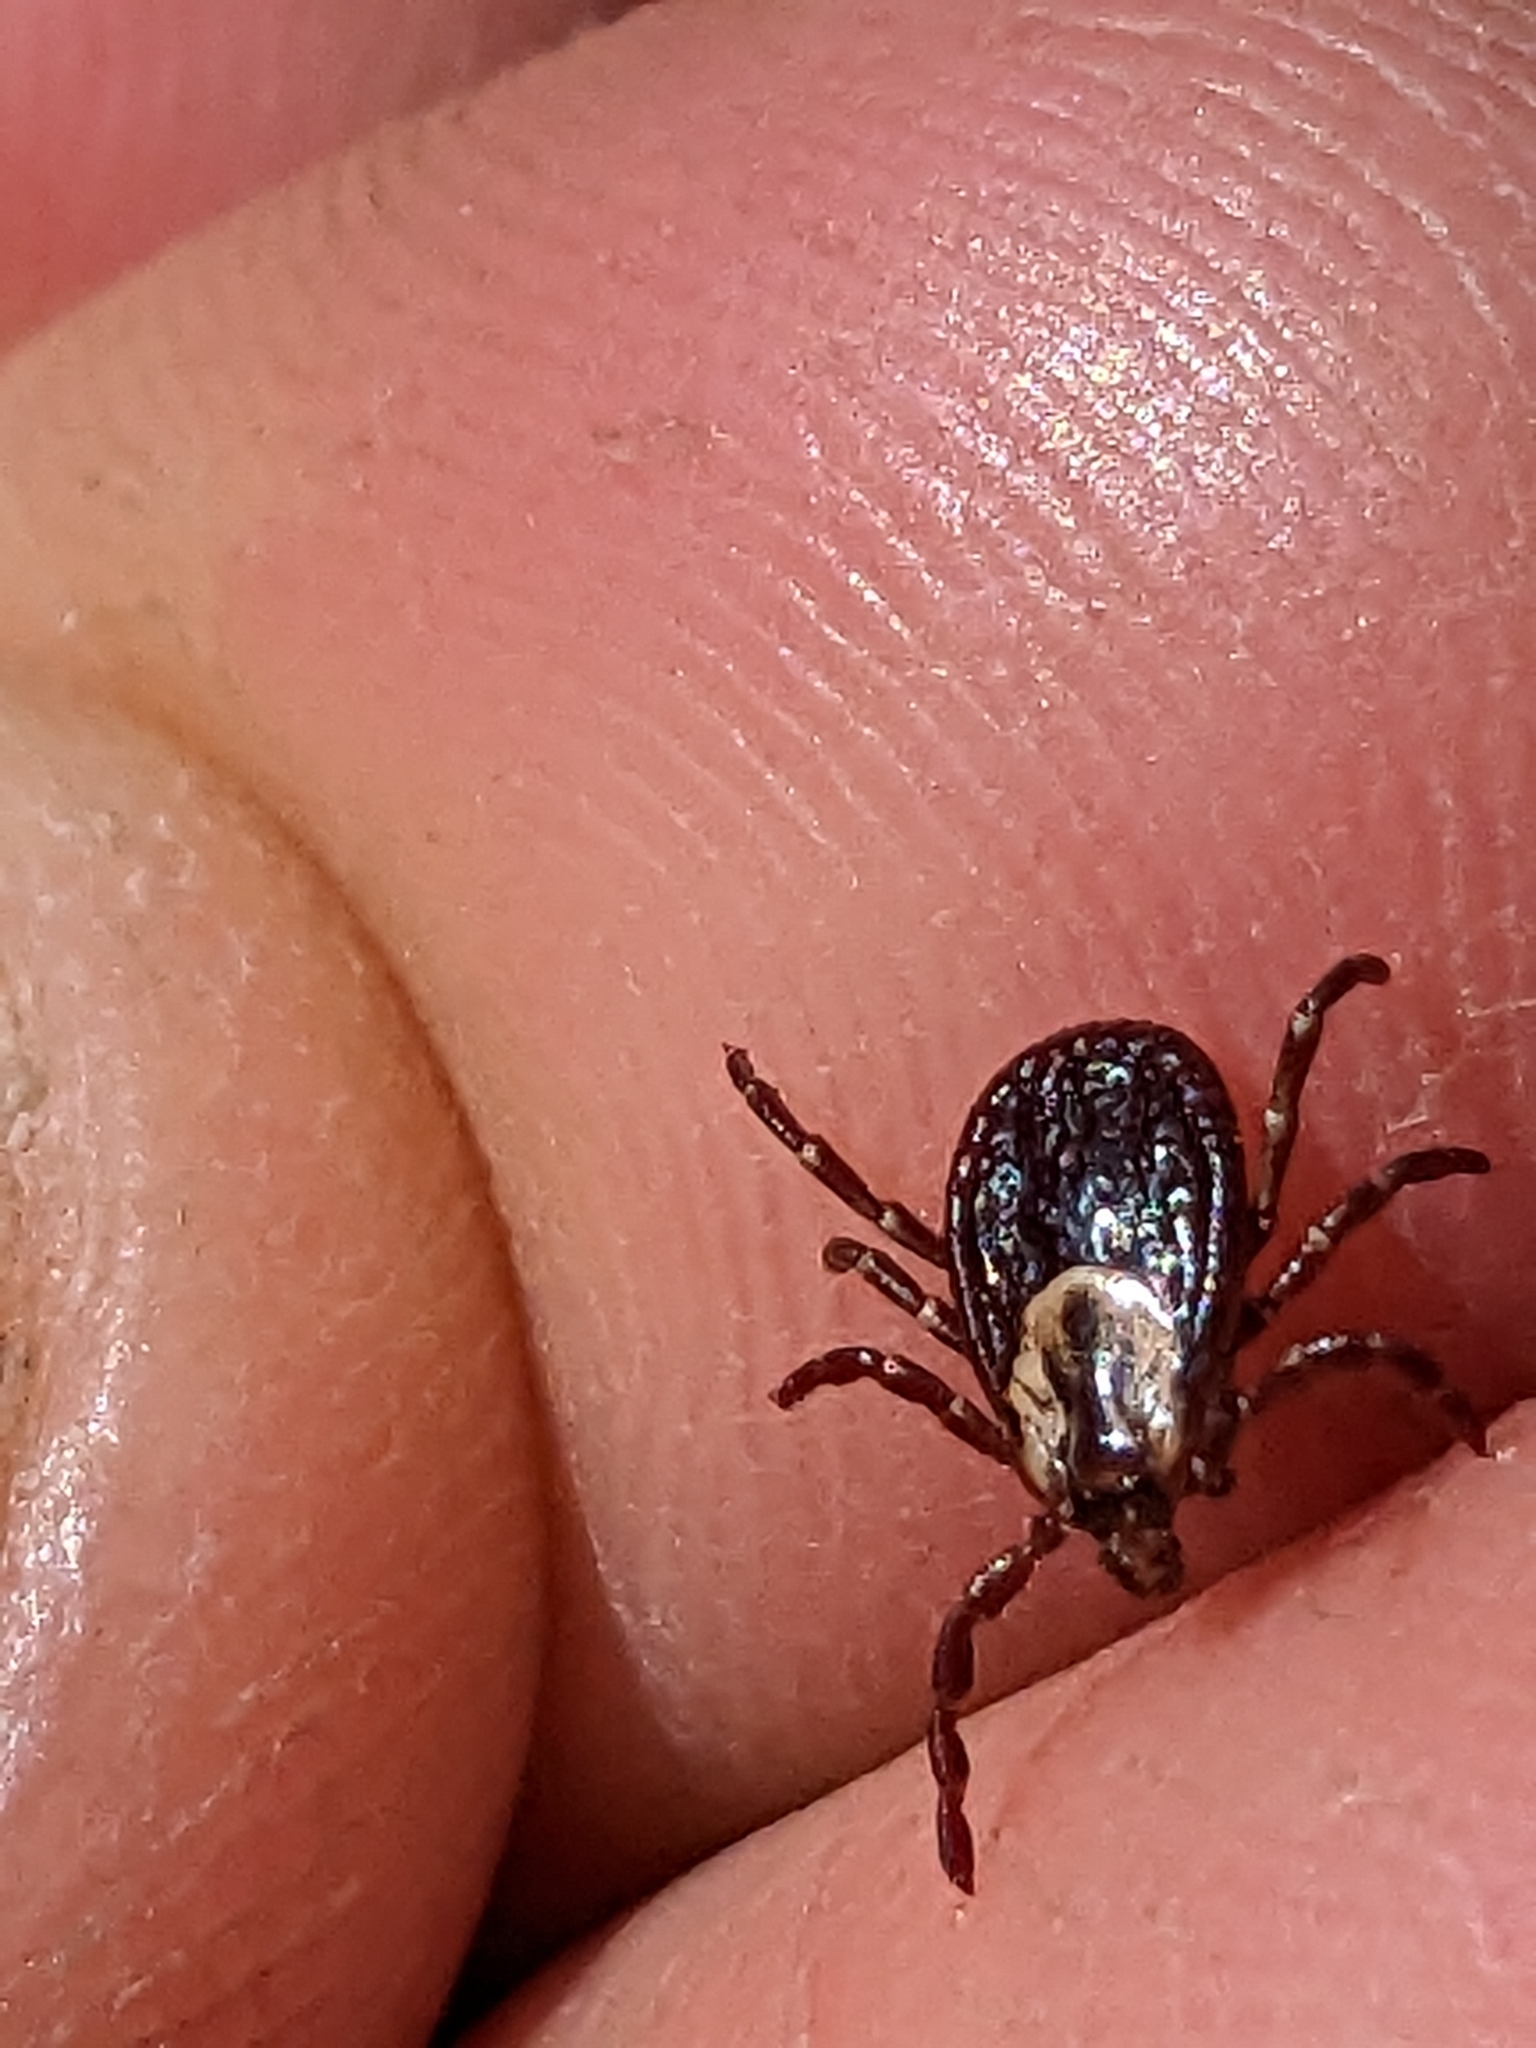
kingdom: Animalia
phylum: Arthropoda
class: Arachnida
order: Ixodida
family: Ixodidae
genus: Dermacentor
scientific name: Dermacentor variabilis
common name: American dog tick
